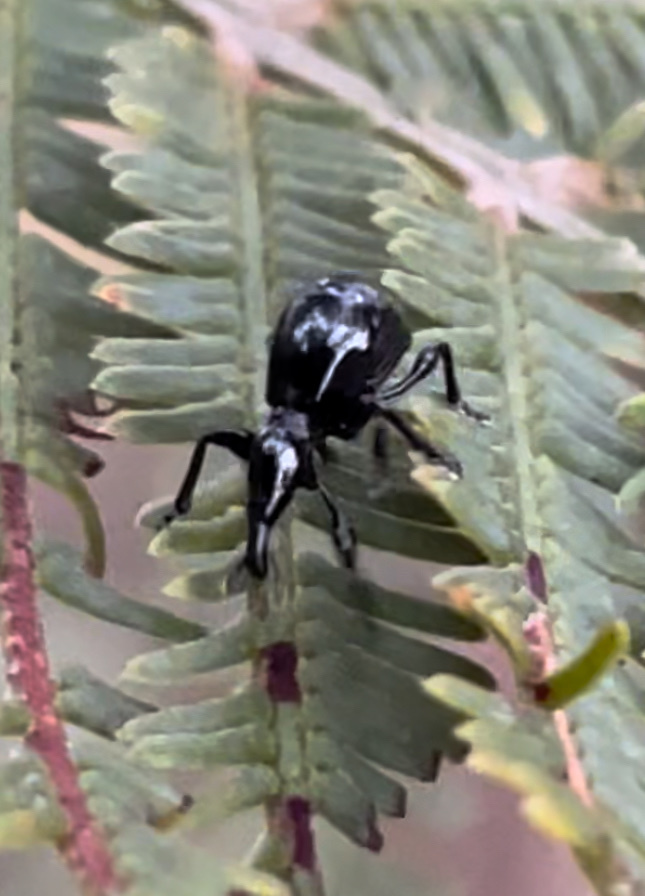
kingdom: Animalia
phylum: Arthropoda
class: Insecta
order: Coleoptera
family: Brentidae
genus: Rhynolaccus
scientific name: Rhynolaccus formicarius
